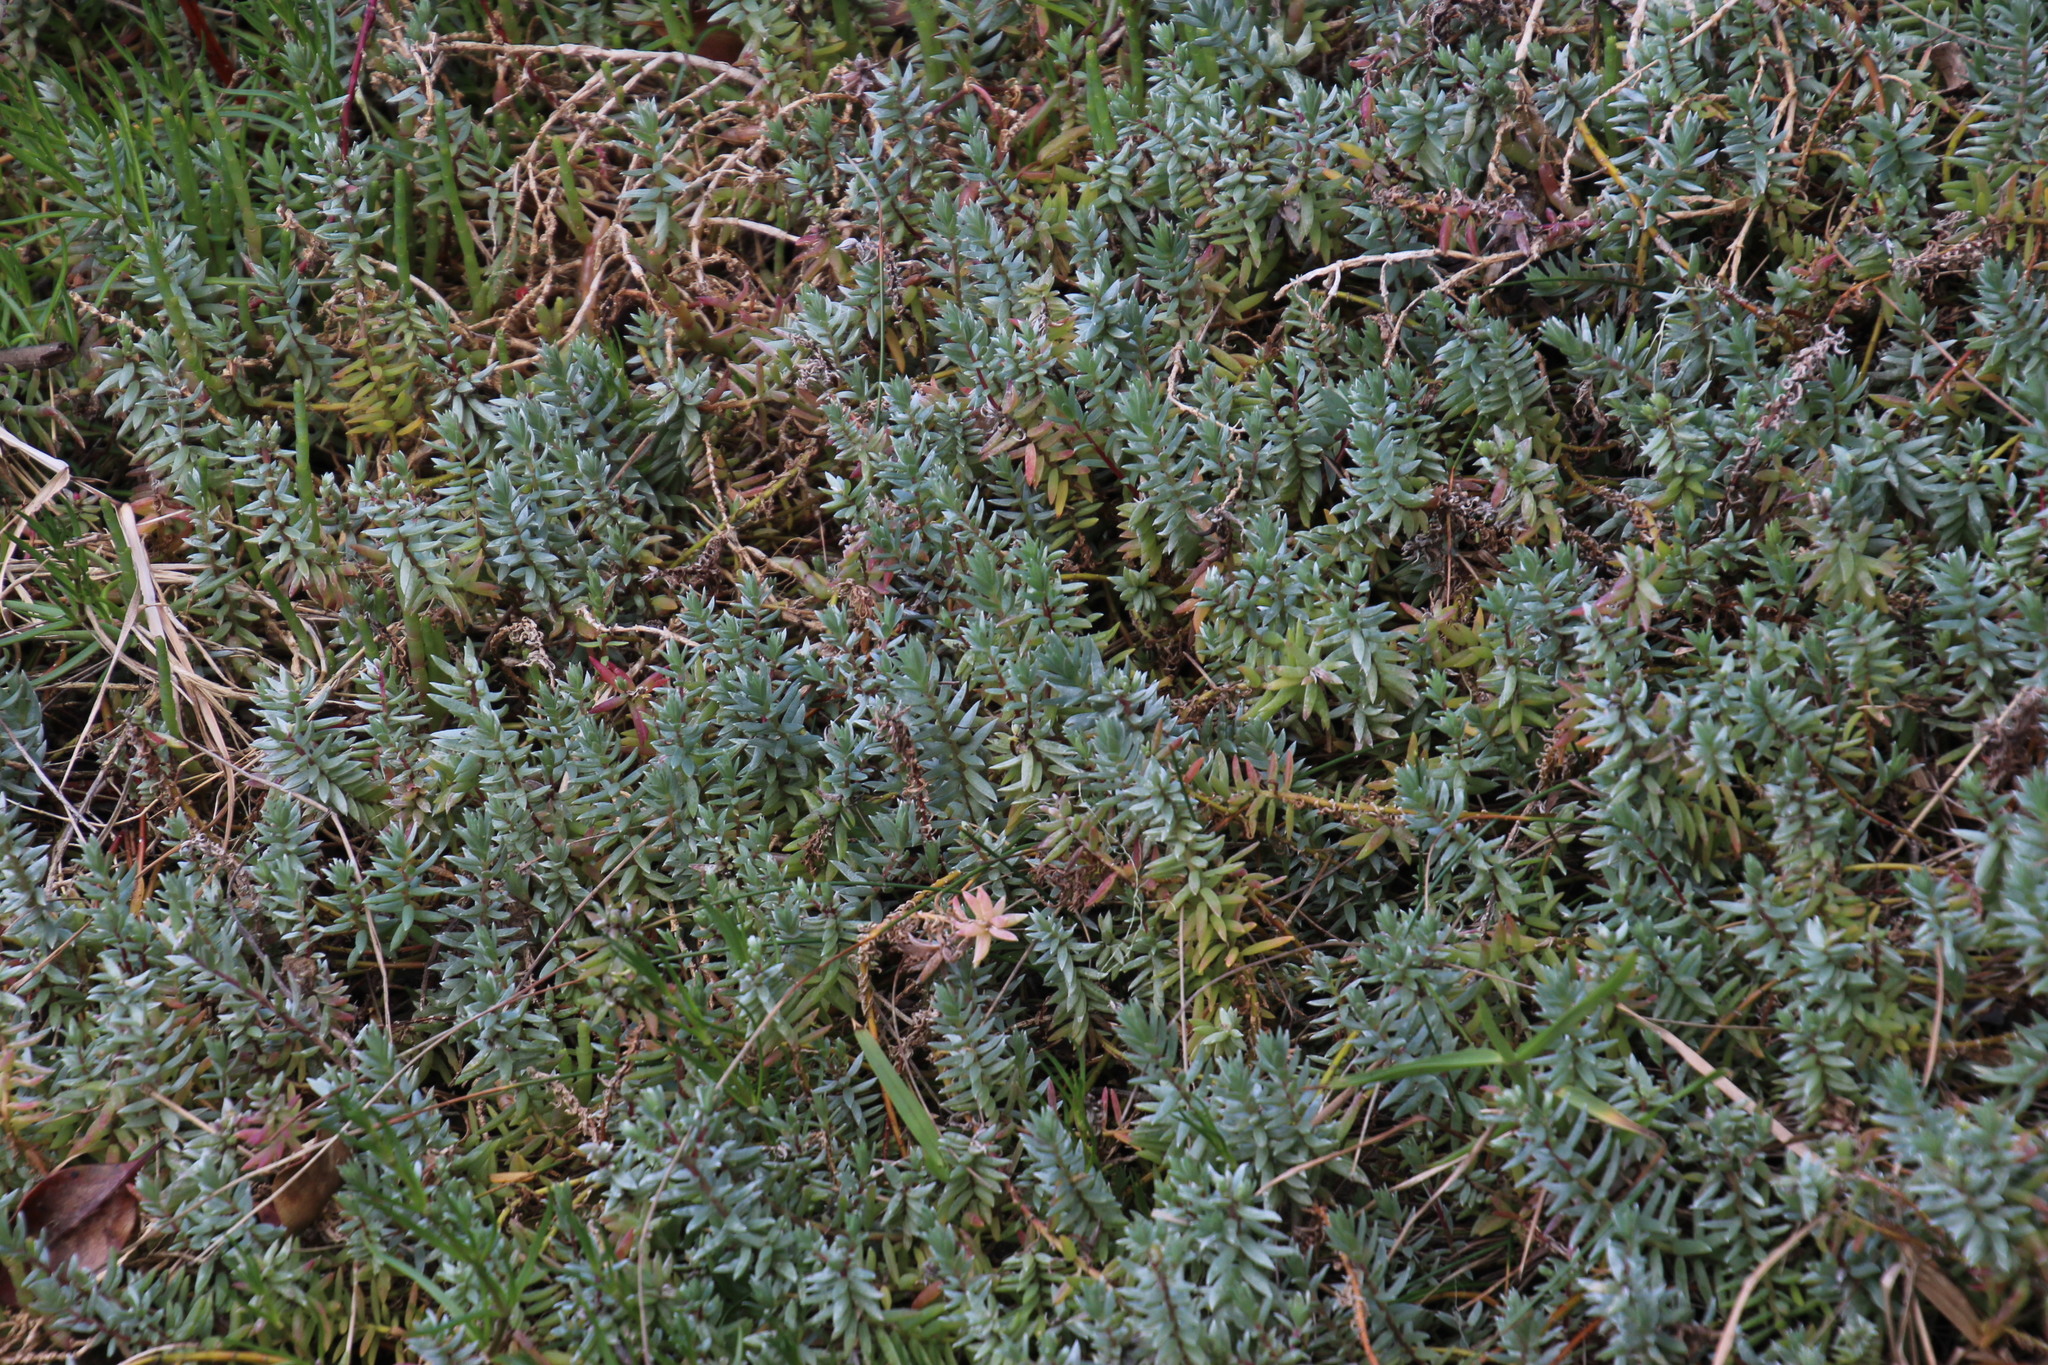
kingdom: Plantae
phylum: Tracheophyta
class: Magnoliopsida
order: Caryophyllales
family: Amaranthaceae
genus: Chenolea
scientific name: Chenolea diffusa
